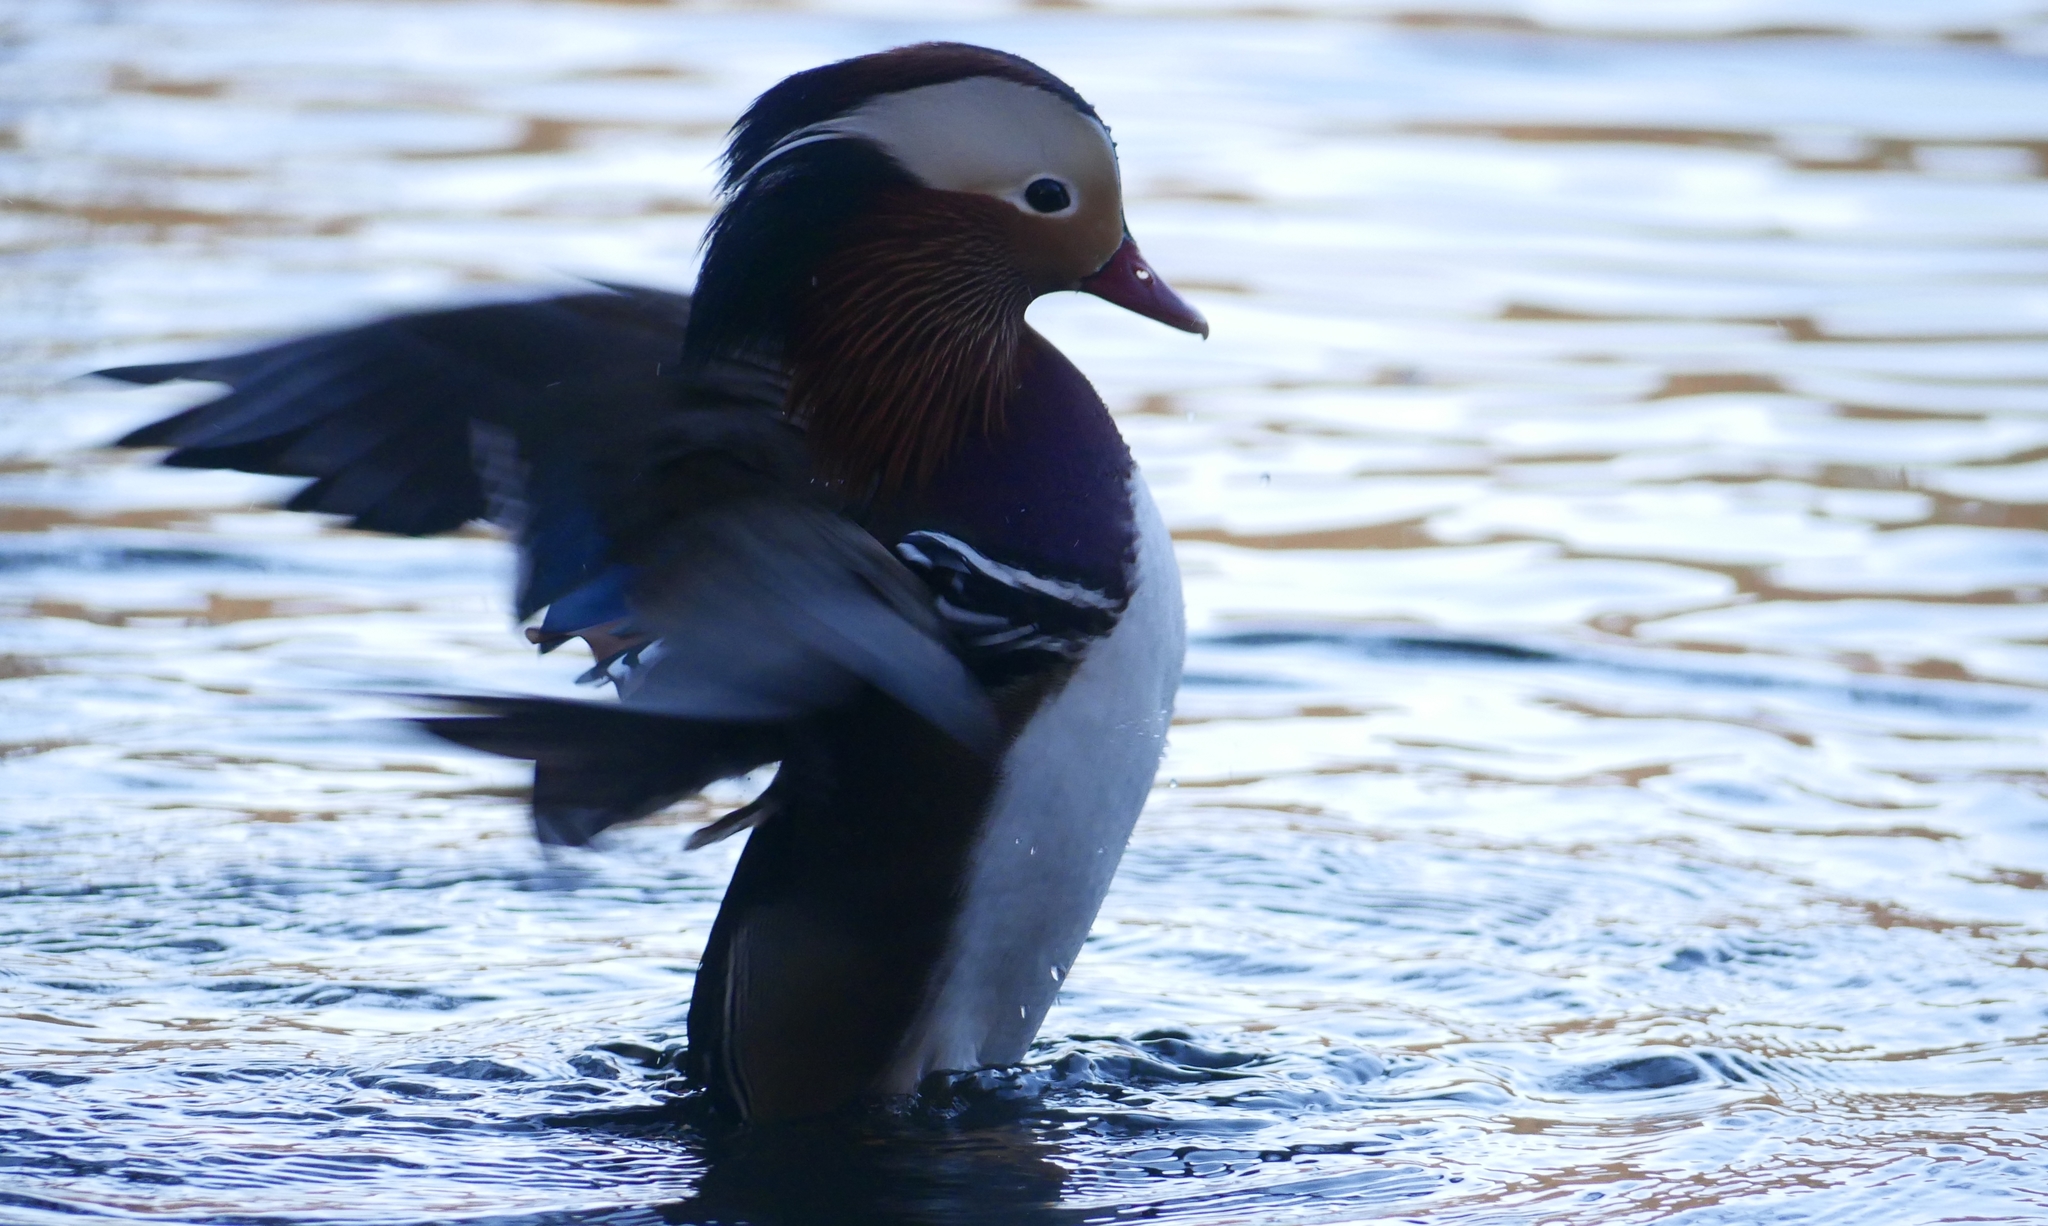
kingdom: Animalia
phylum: Chordata
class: Aves
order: Anseriformes
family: Anatidae
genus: Aix
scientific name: Aix galericulata
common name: Mandarin duck
